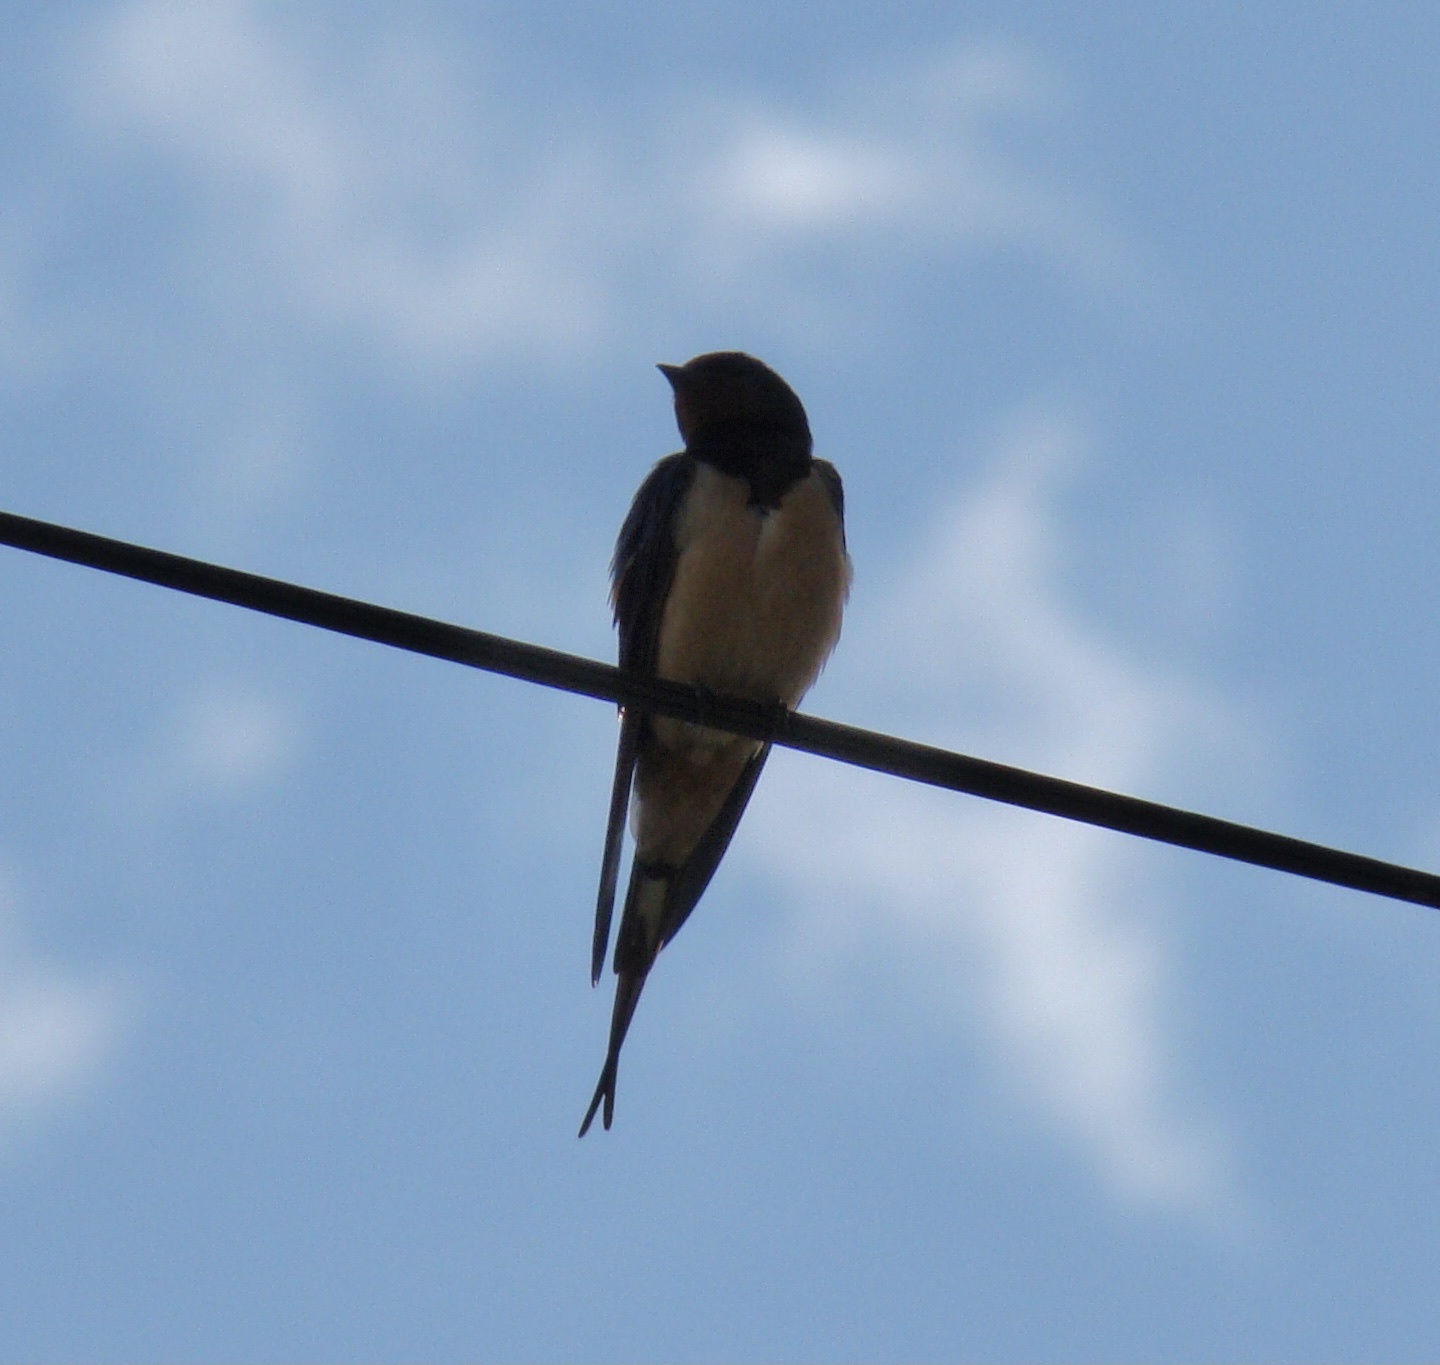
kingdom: Animalia
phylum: Chordata
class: Aves
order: Passeriformes
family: Hirundinidae
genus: Hirundo
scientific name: Hirundo rustica
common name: Barn swallow
